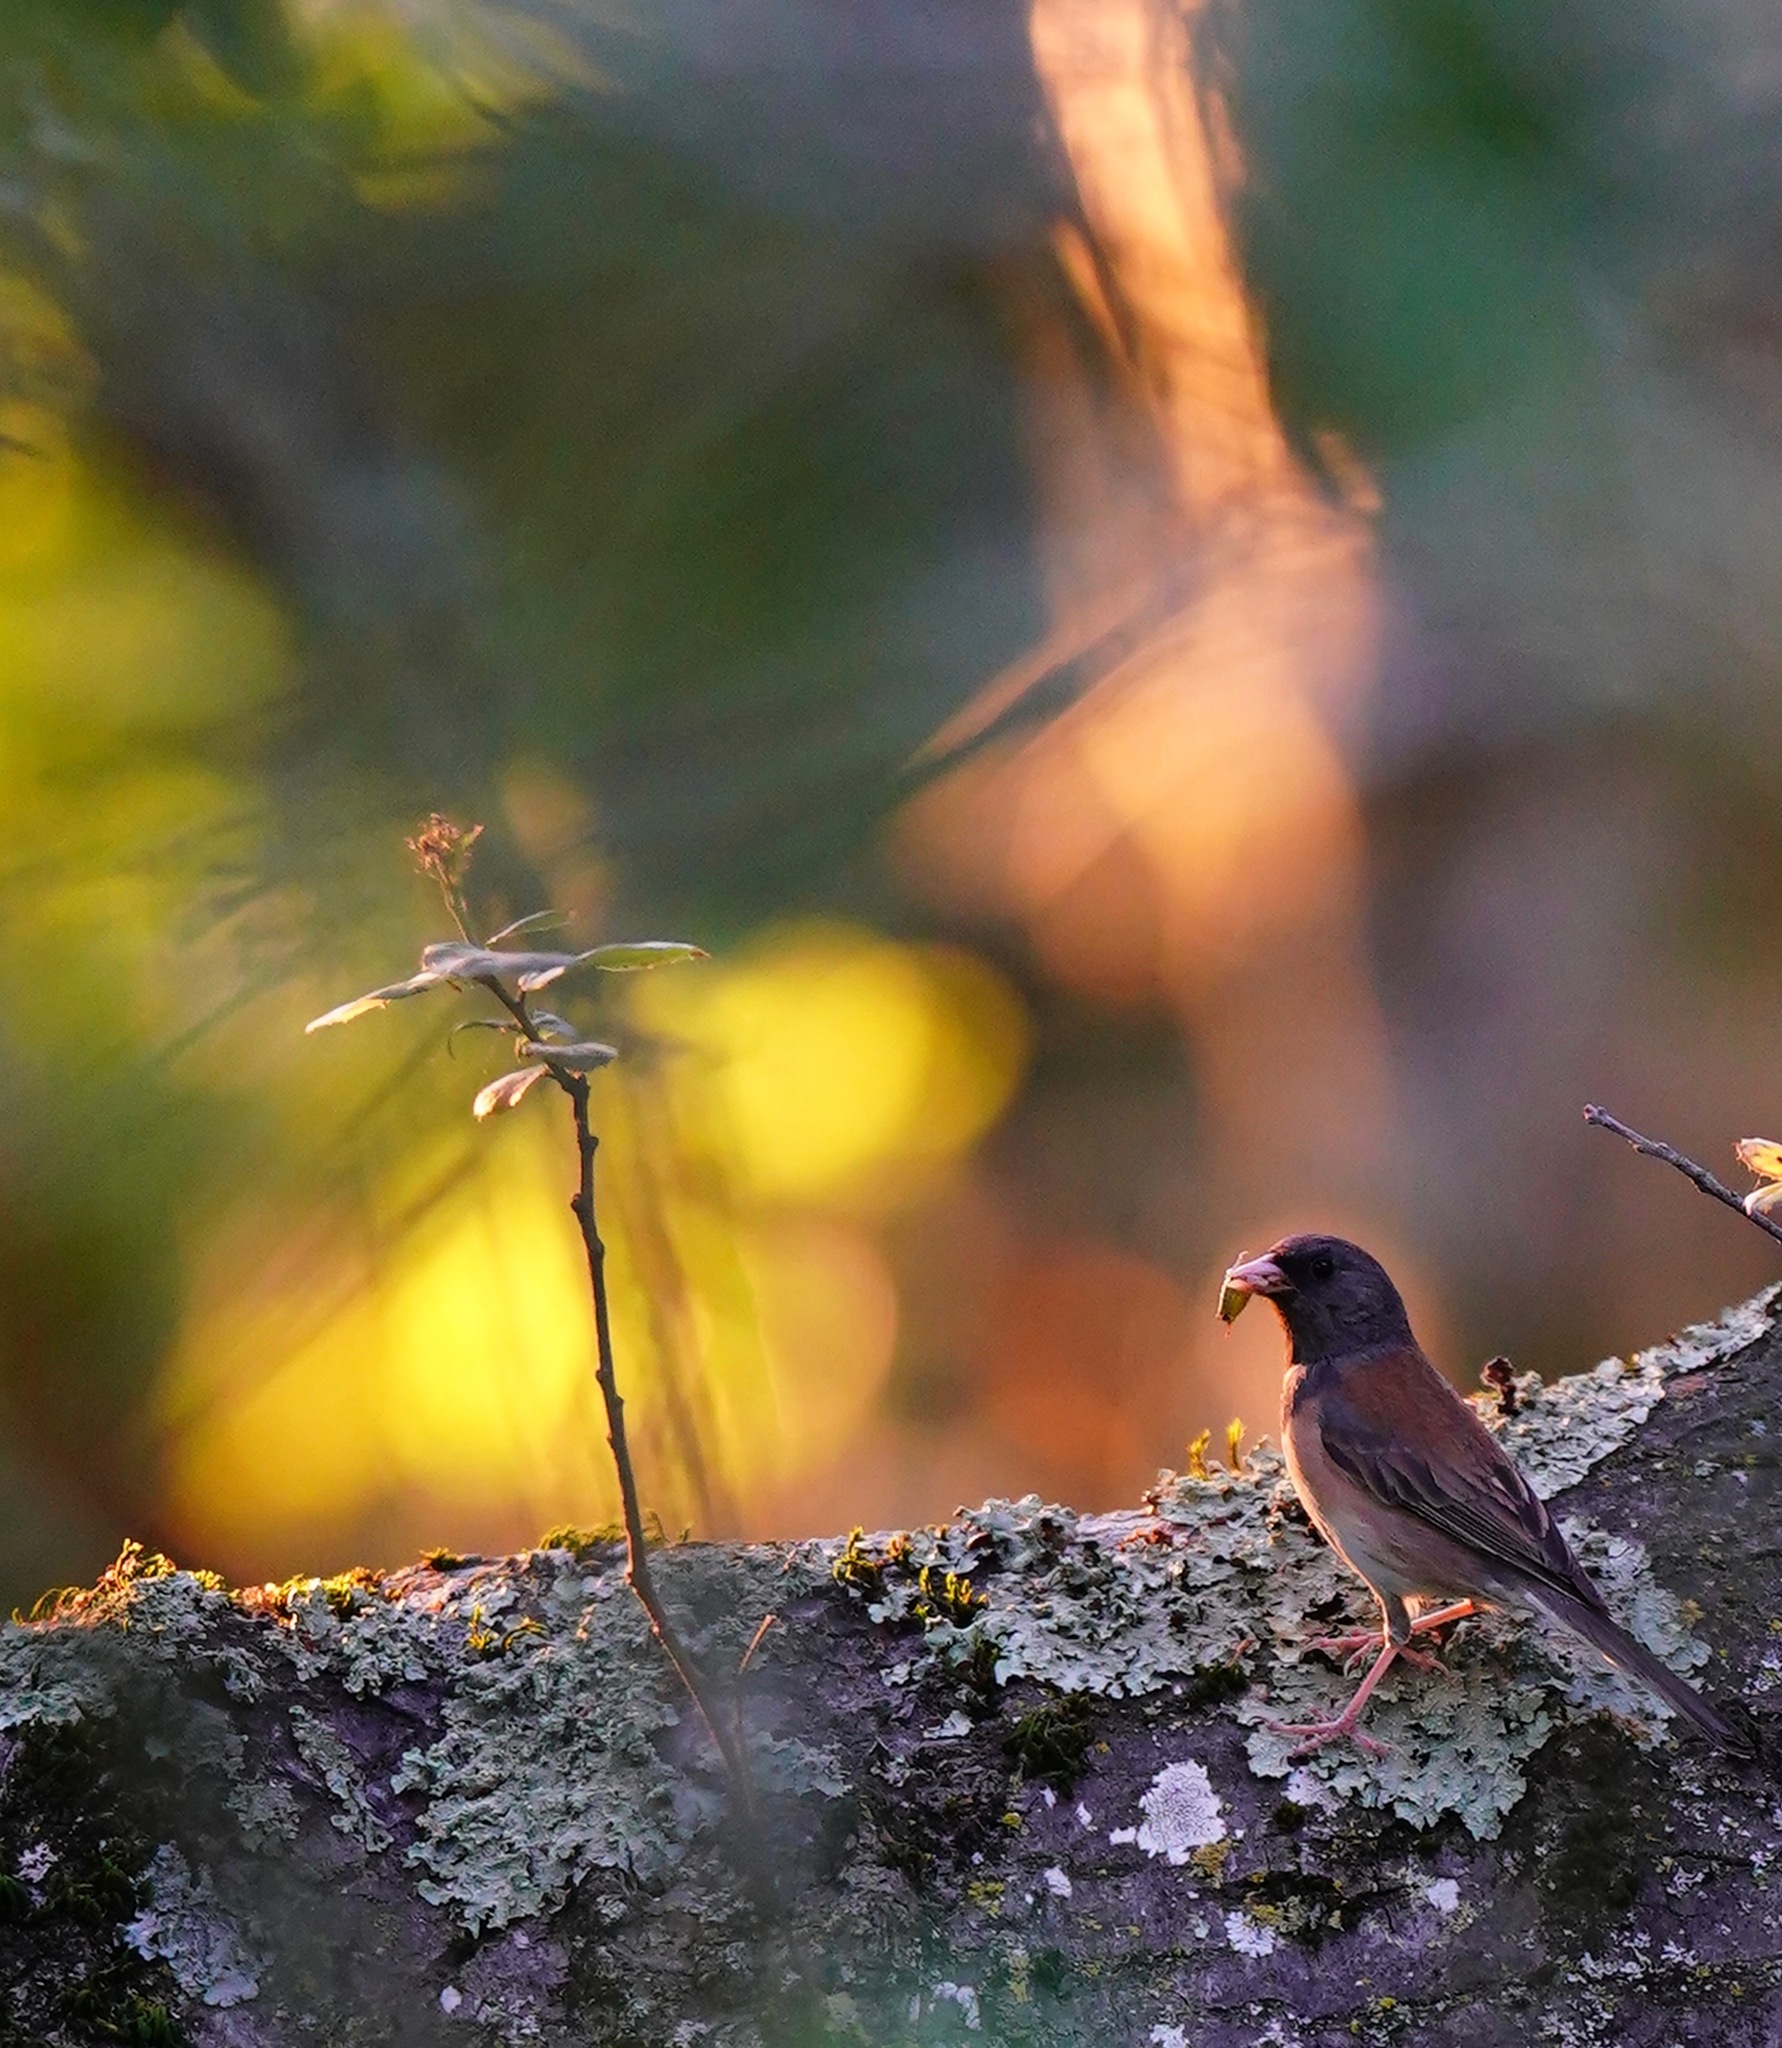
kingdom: Animalia
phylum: Chordata
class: Aves
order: Passeriformes
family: Passerellidae
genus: Junco
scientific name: Junco hyemalis
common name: Dark-eyed junco
